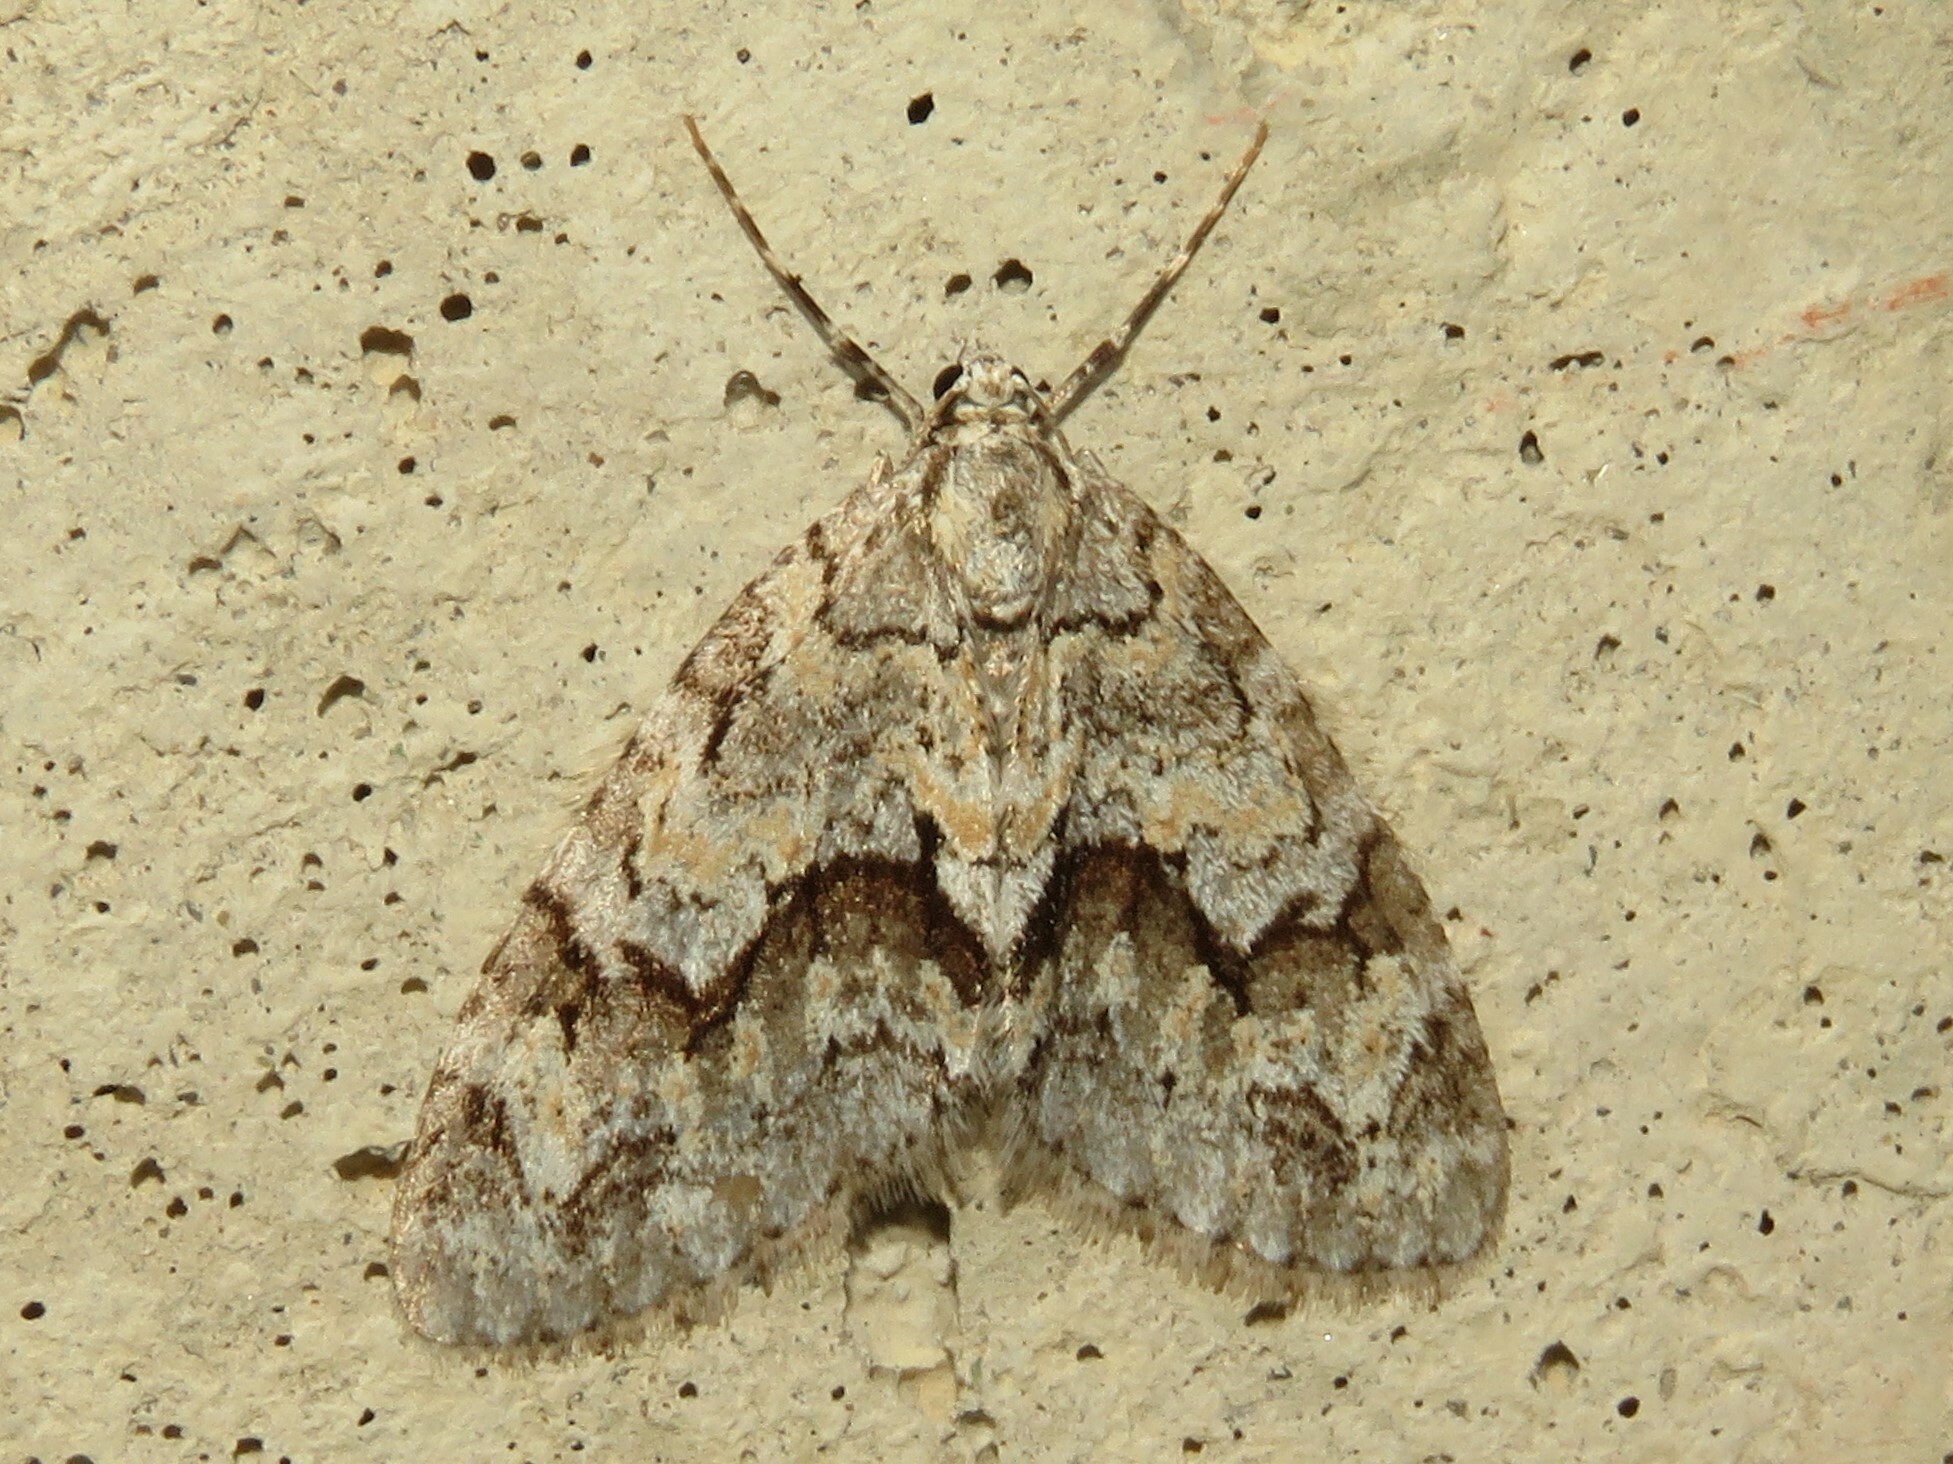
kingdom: Animalia
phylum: Arthropoda
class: Insecta
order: Lepidoptera
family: Geometridae
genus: Cladara
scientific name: Cladara limitaria
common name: Mottled gray carpet
